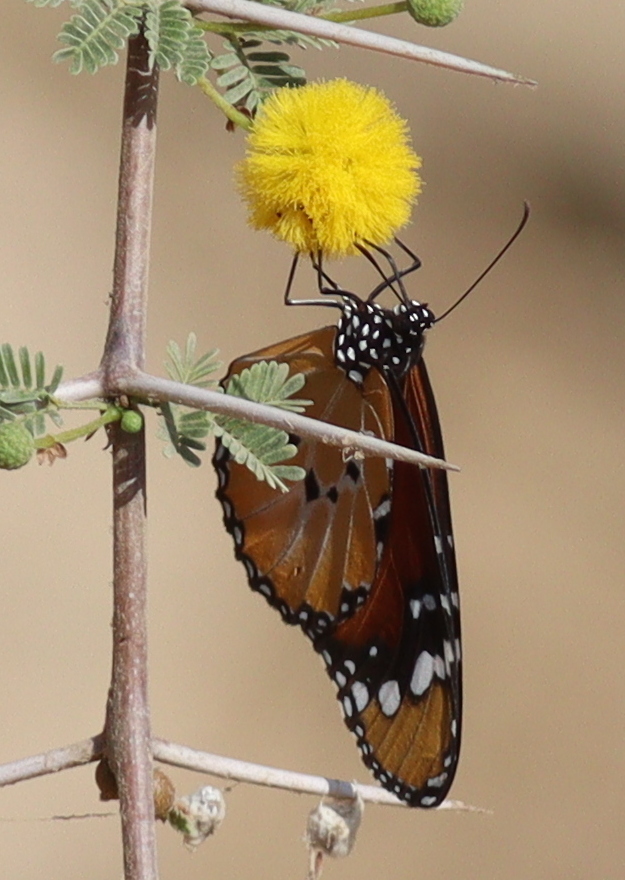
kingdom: Animalia
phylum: Arthropoda
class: Insecta
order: Lepidoptera
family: Nymphalidae
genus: Danaus
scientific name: Danaus chrysippus
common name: Plain tiger
